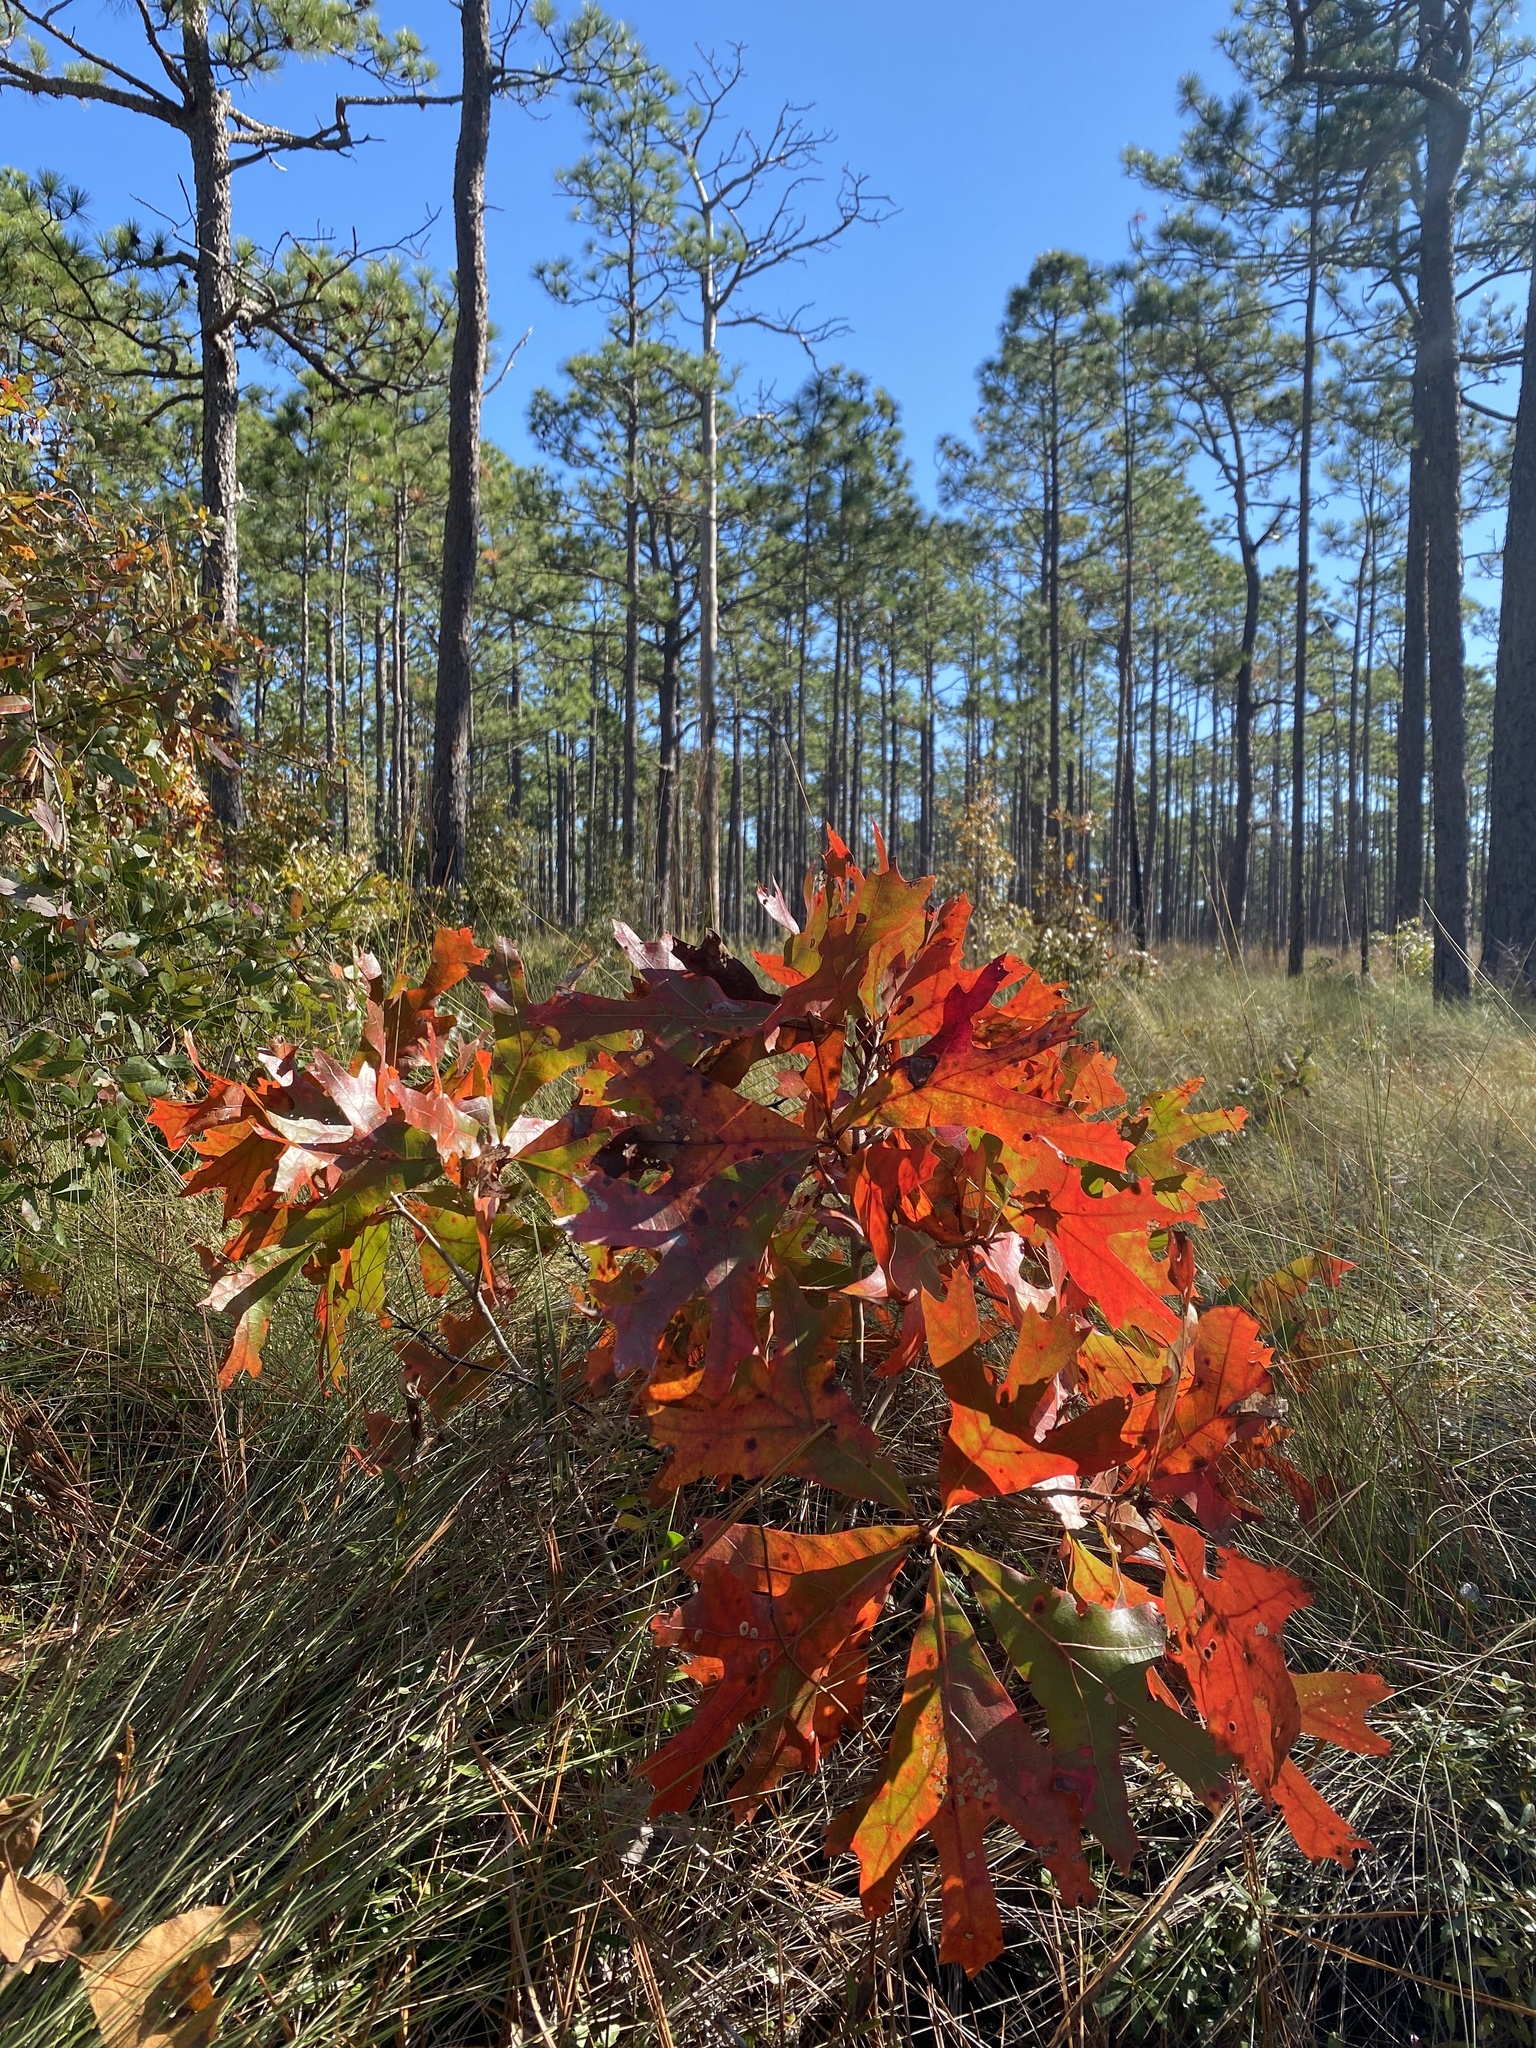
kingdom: Plantae
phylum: Tracheophyta
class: Magnoliopsida
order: Fagales
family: Fagaceae
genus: Quercus
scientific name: Quercus laevis
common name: Turkey oak
